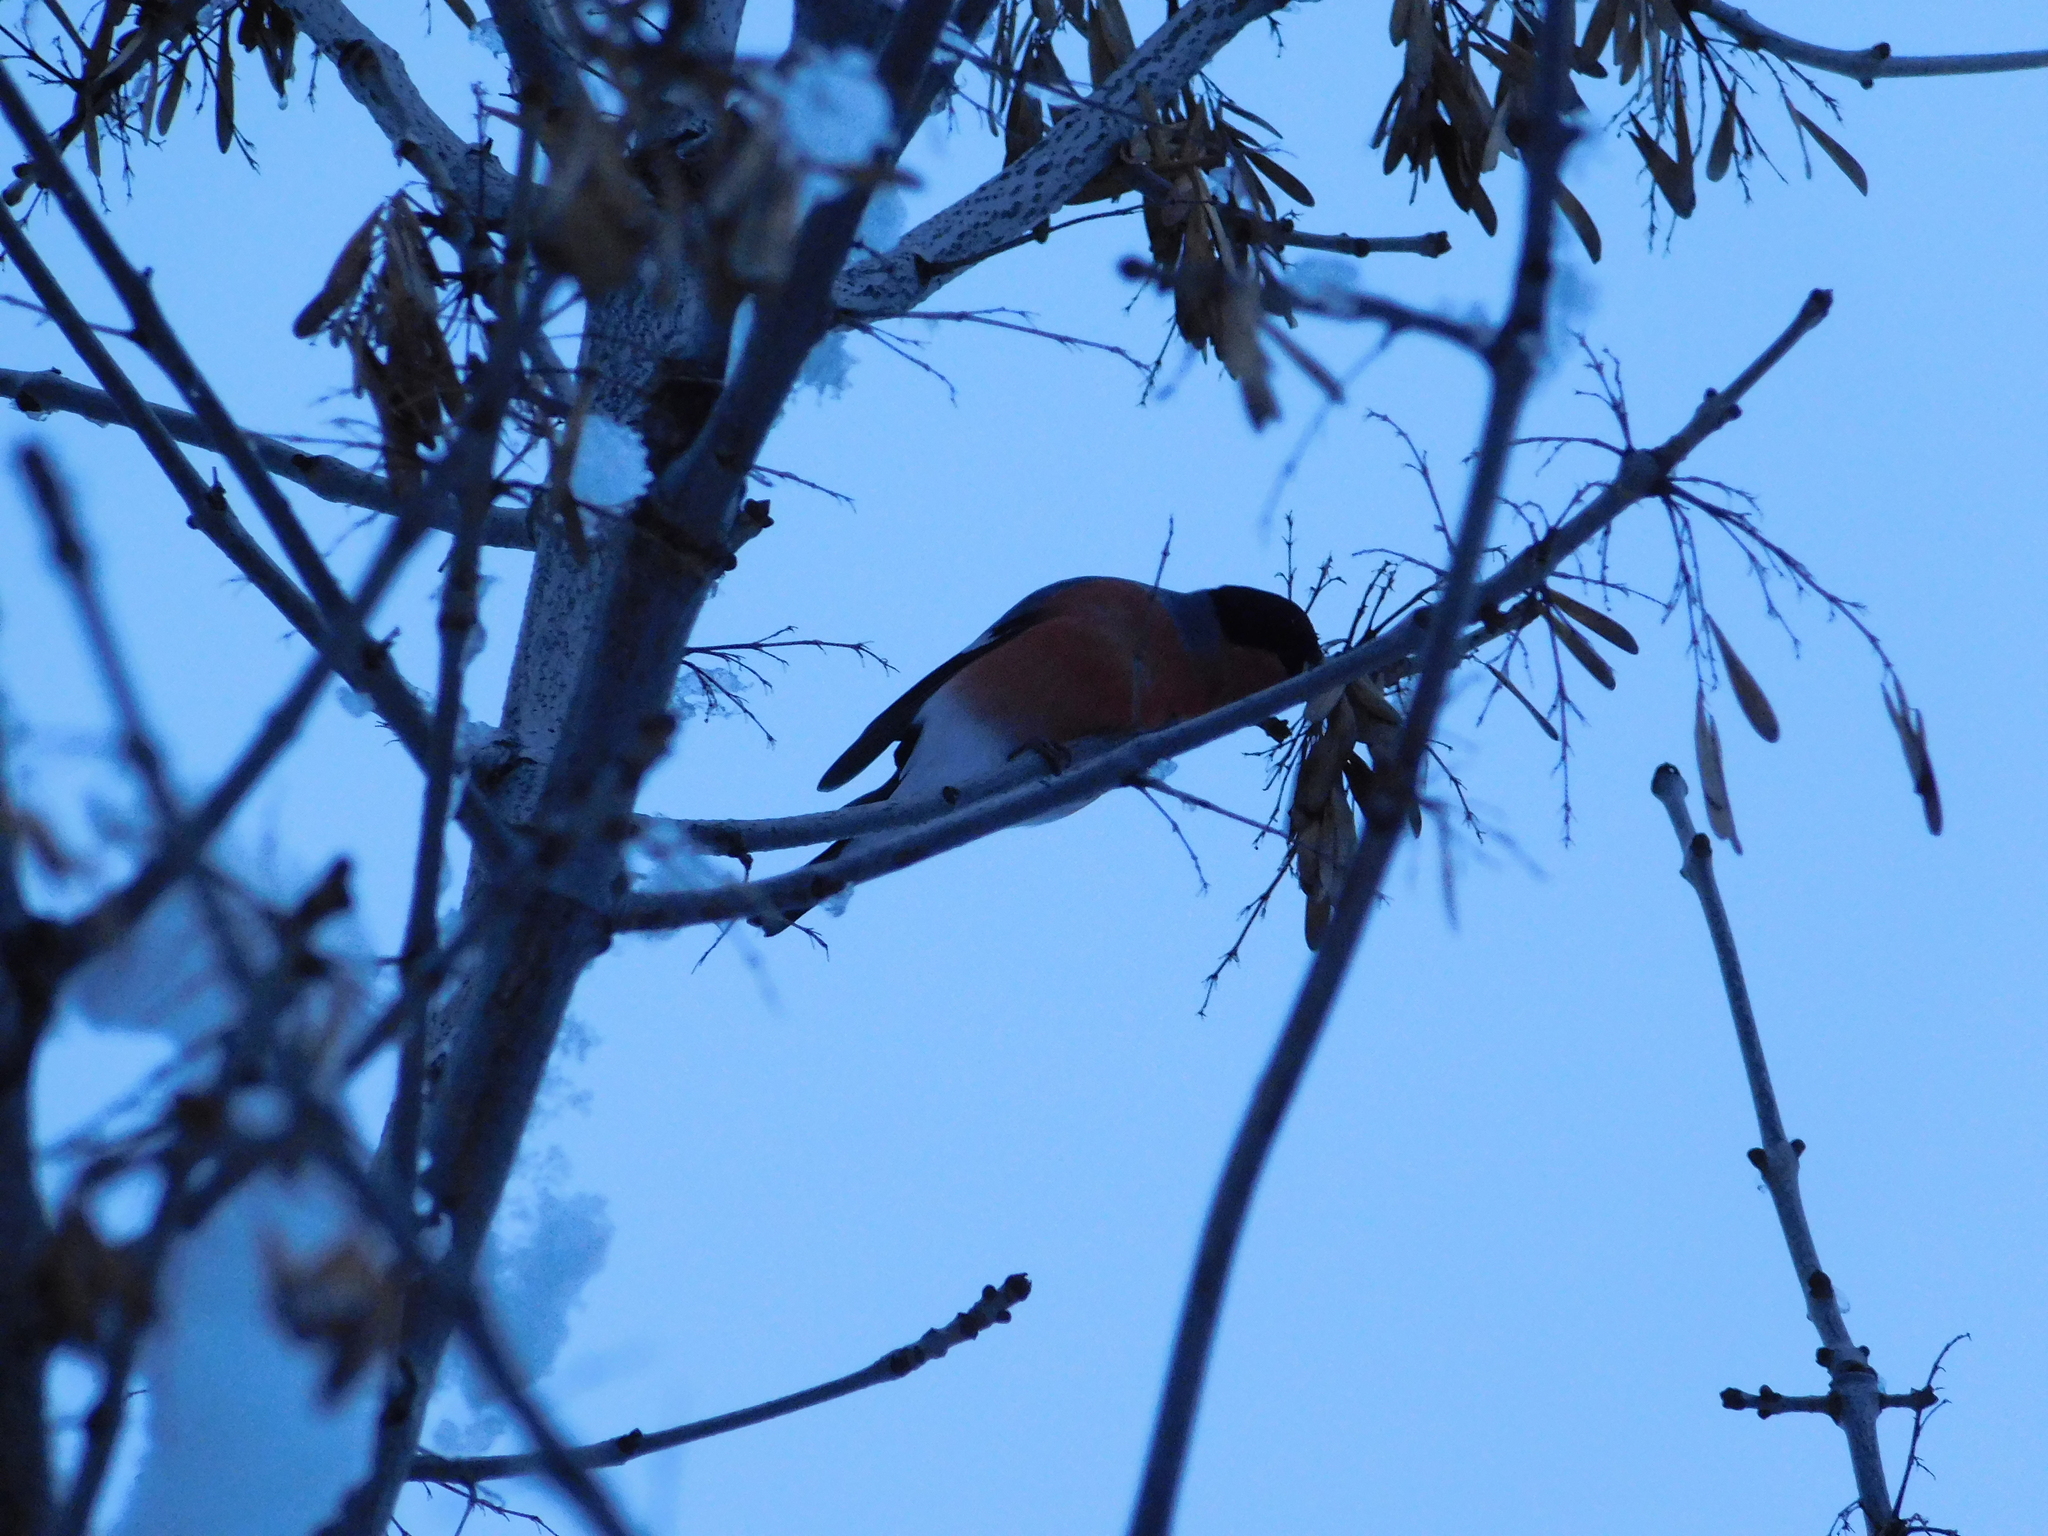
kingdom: Animalia
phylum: Chordata
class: Aves
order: Passeriformes
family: Fringillidae
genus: Pyrrhula
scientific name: Pyrrhula pyrrhula
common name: Eurasian bullfinch
